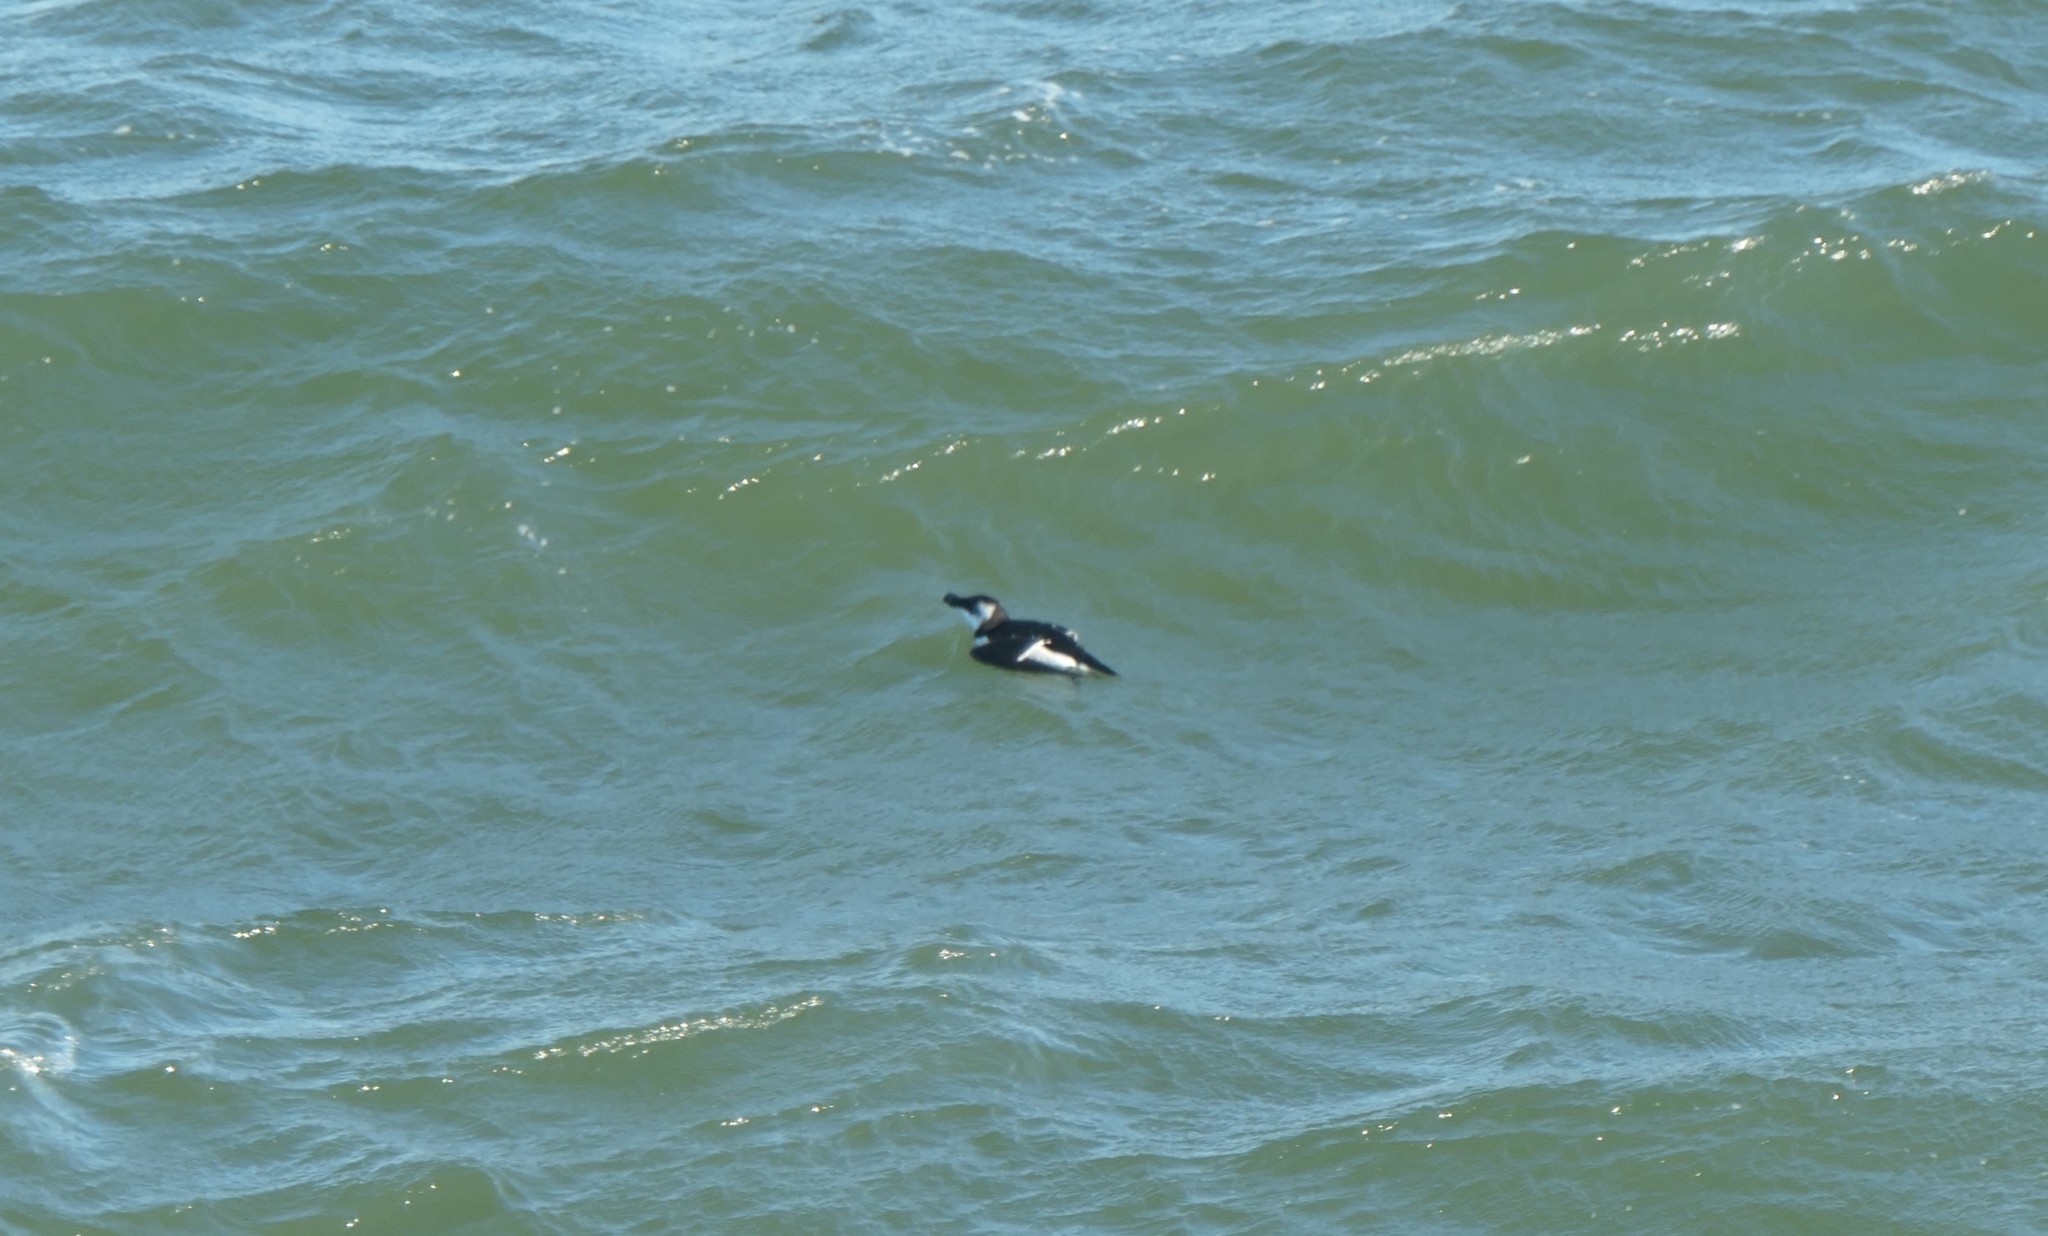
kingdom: Animalia
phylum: Chordata
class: Aves
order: Charadriiformes
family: Alcidae
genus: Alca
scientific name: Alca torda
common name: Razorbill
